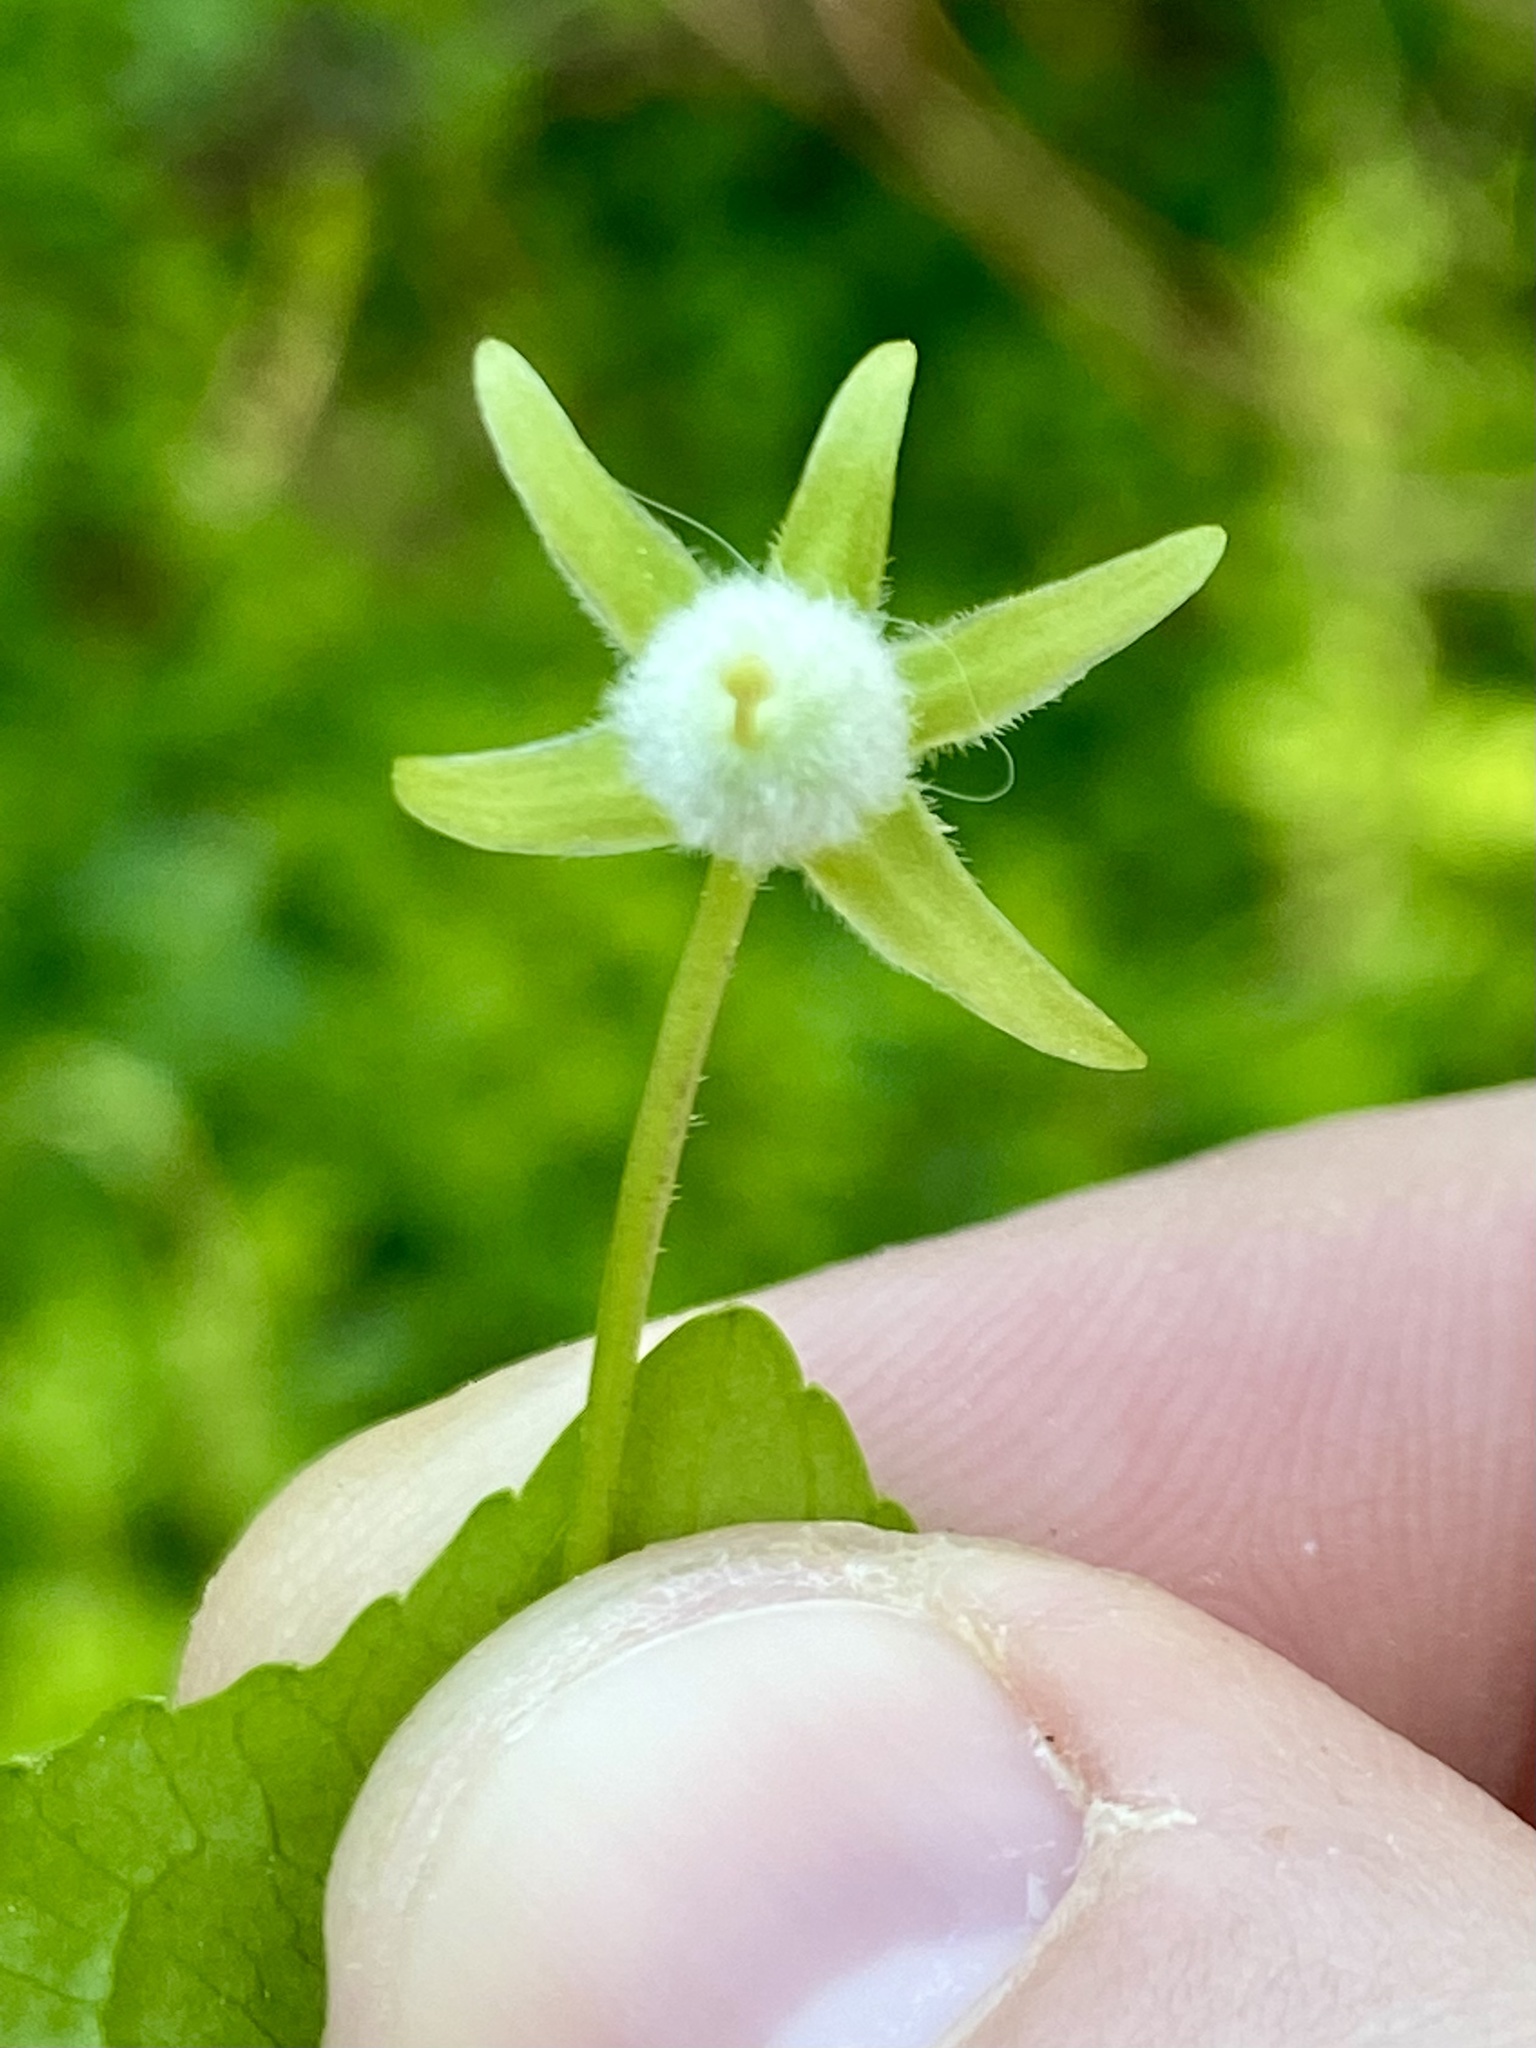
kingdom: Plantae
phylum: Tracheophyta
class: Magnoliopsida
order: Malpighiales
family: Violaceae
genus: Viola
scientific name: Viola eriocarpa
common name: Smooth yellow violet
